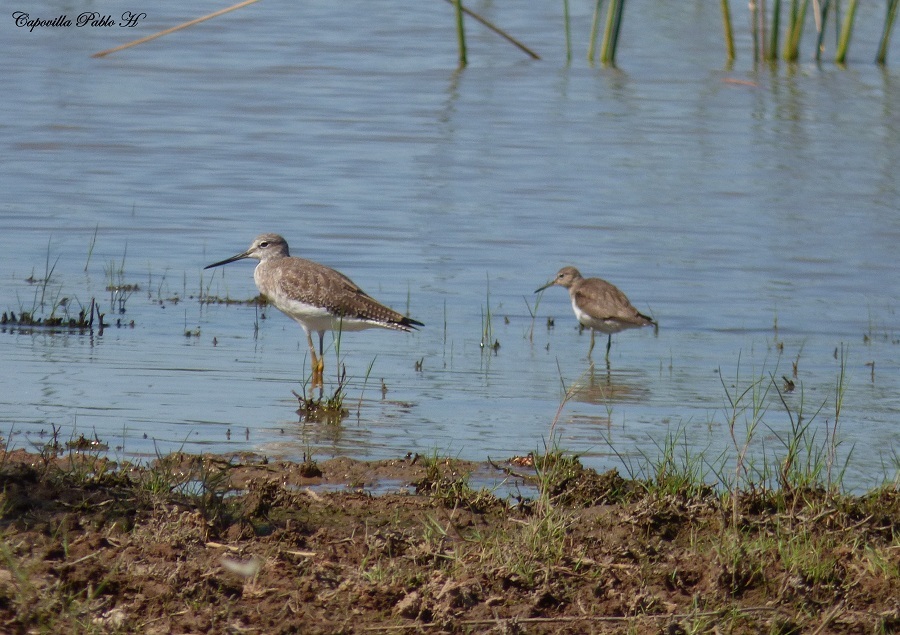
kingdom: Animalia
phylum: Chordata
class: Aves
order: Charadriiformes
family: Scolopacidae
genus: Tringa
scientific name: Tringa melanoleuca
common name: Greater yellowlegs
